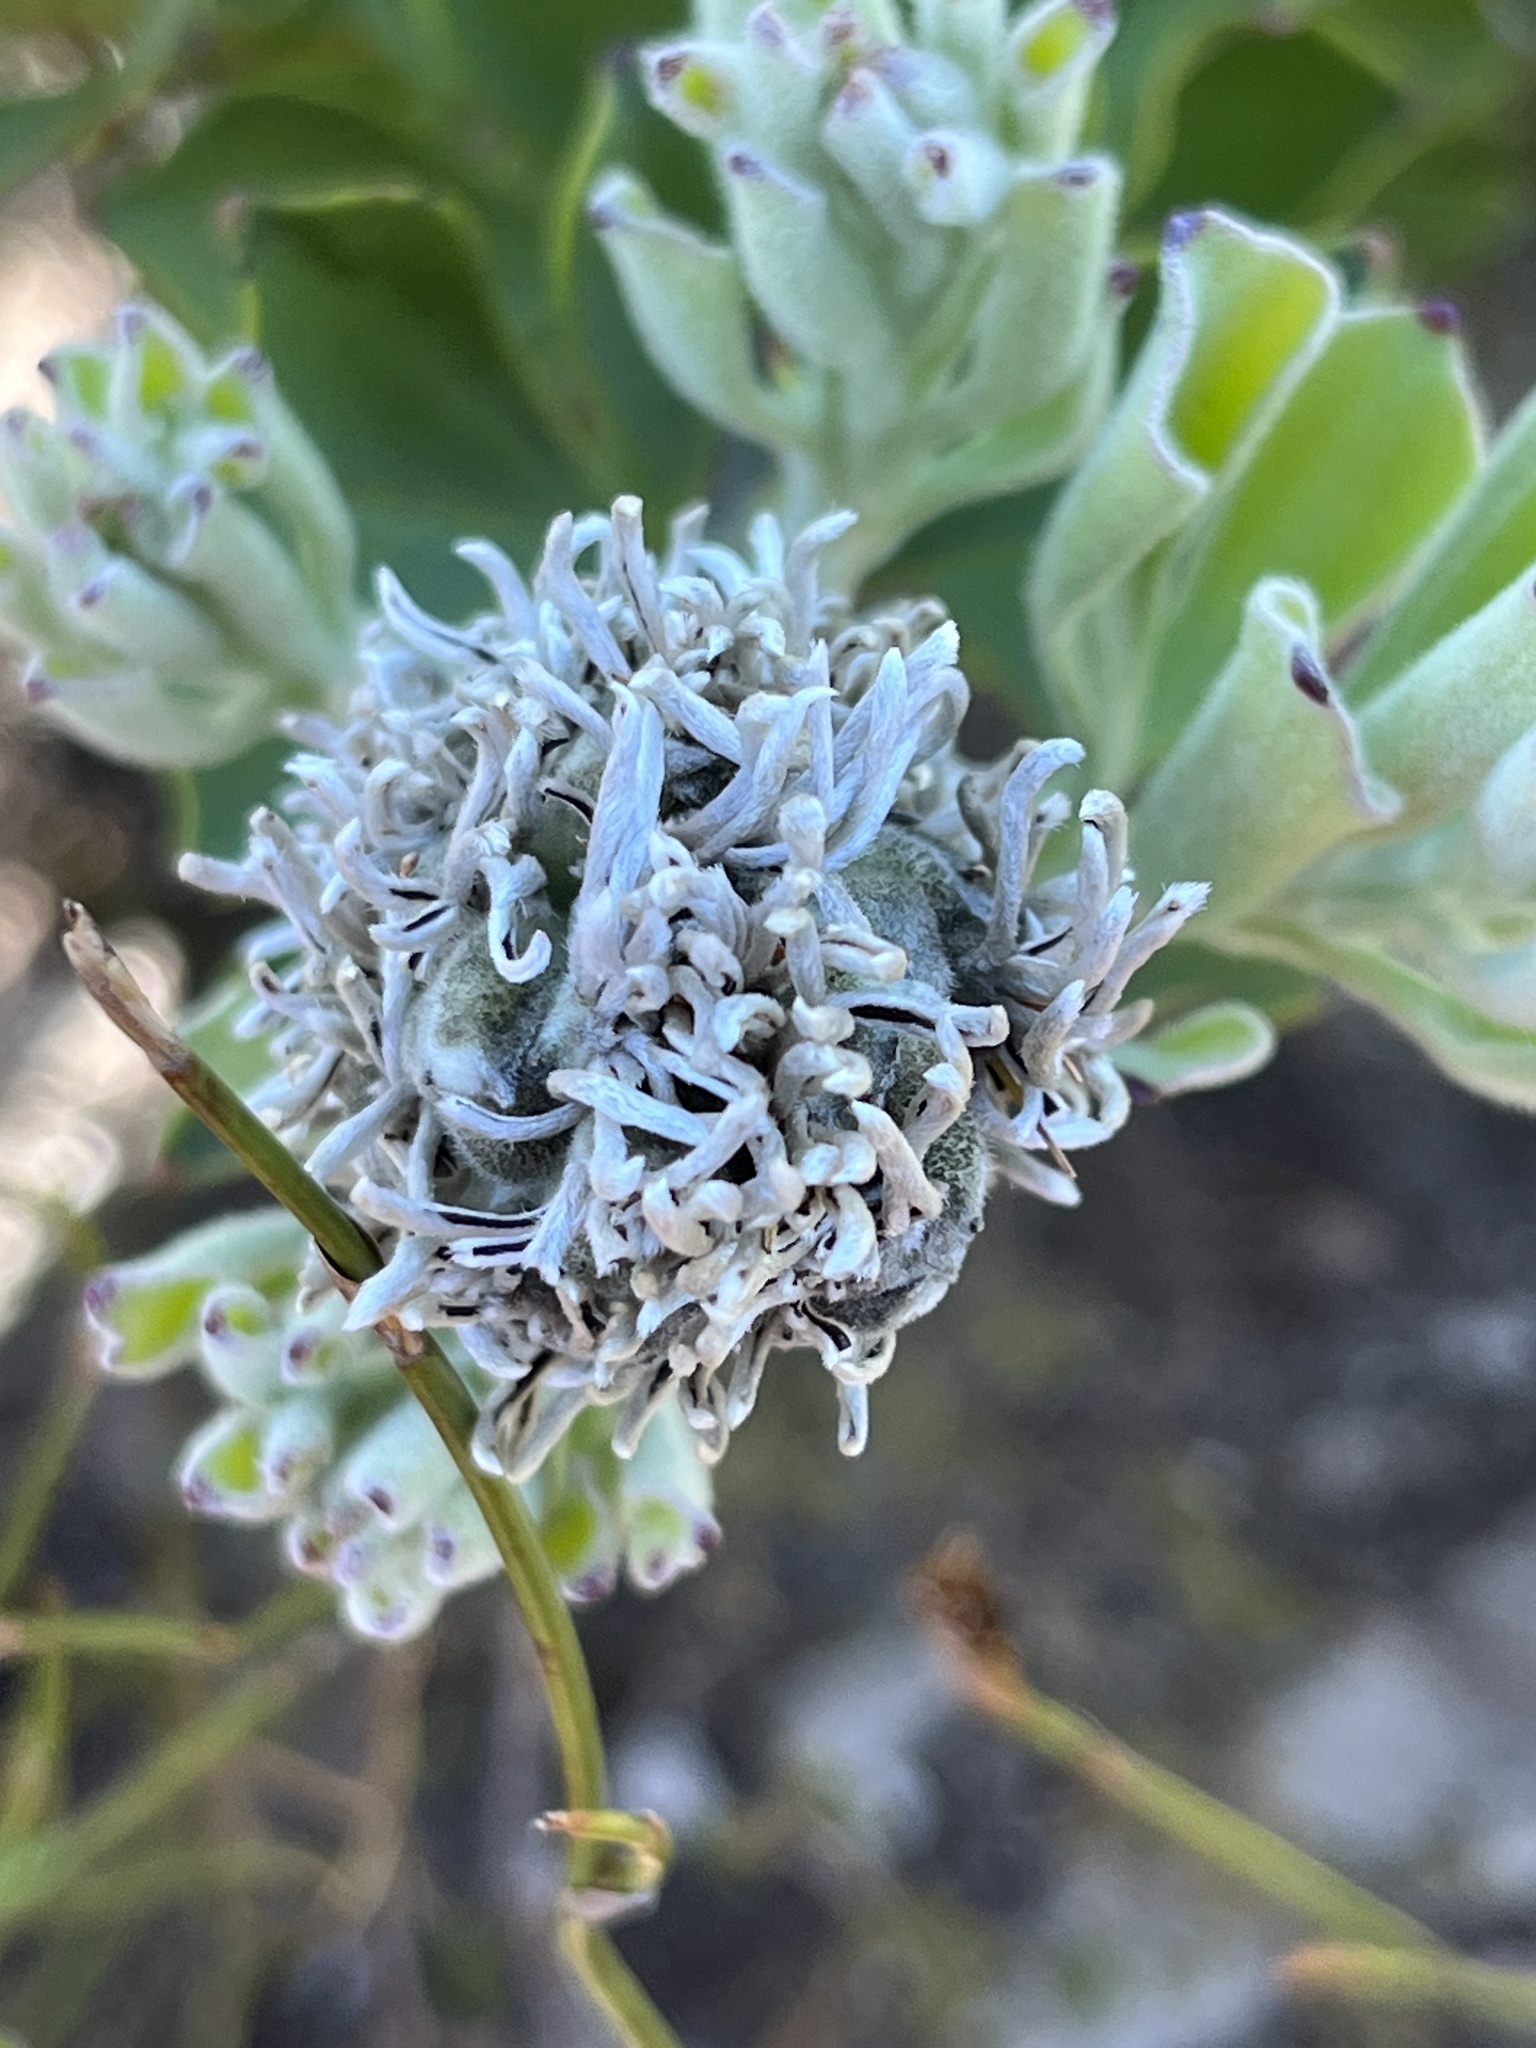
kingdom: Plantae
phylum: Tracheophyta
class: Magnoliopsida
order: Proteales
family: Proteaceae
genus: Paranomus
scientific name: Paranomus sceptrum-gustavianus
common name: King gustav's sceptre
